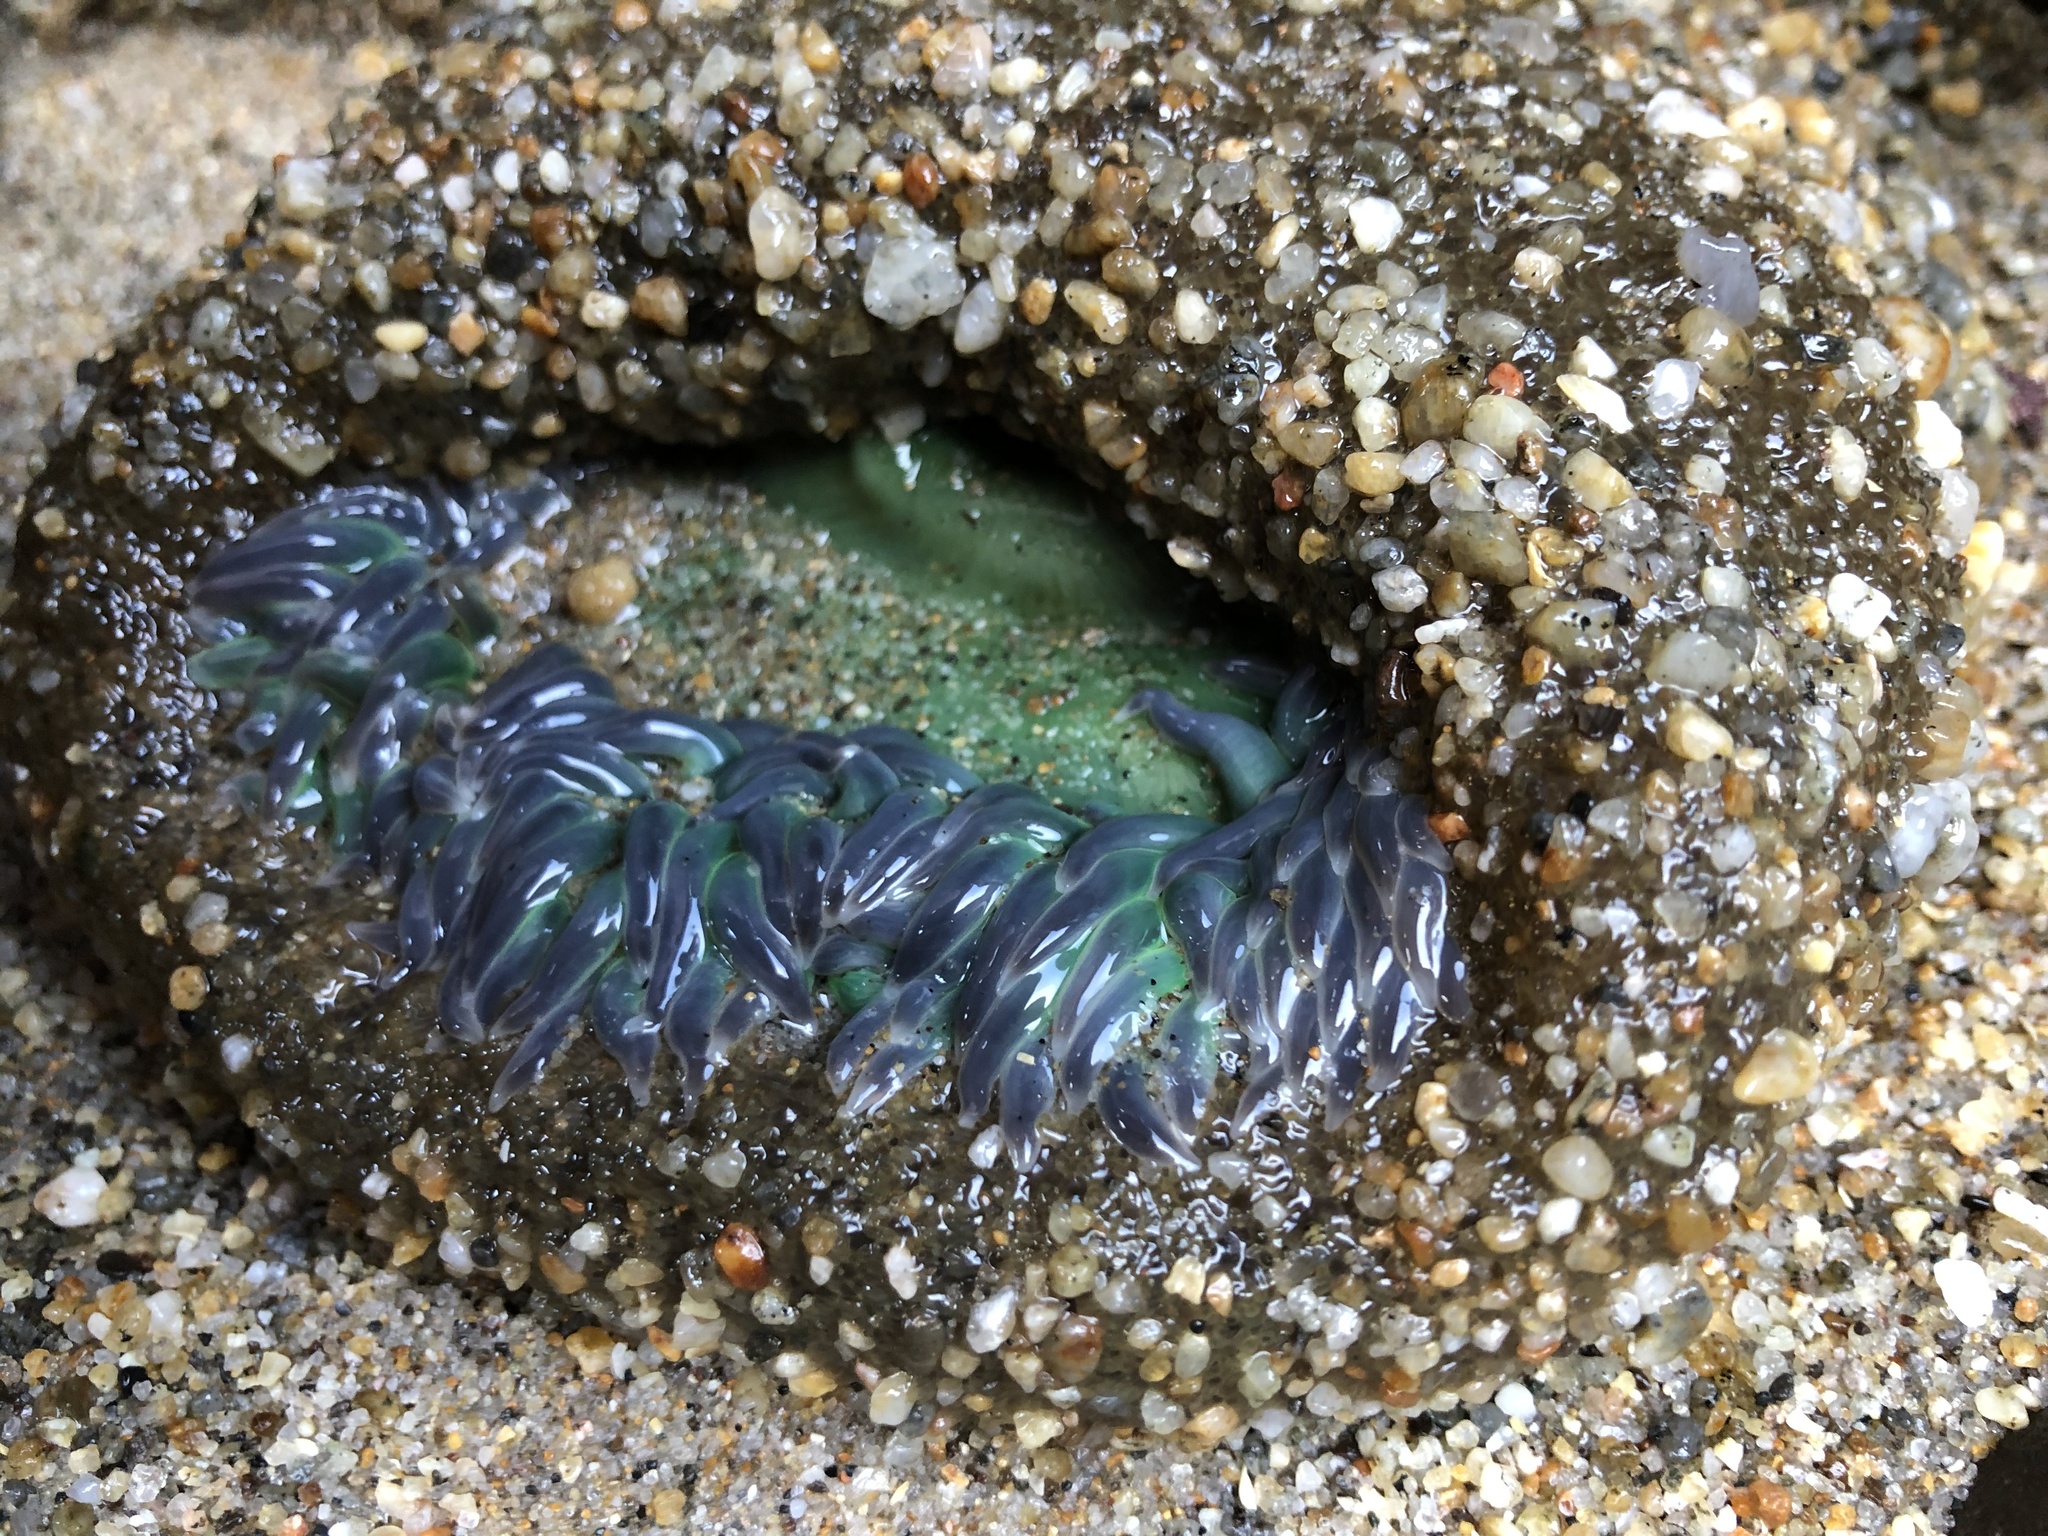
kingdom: Animalia
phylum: Cnidaria
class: Anthozoa
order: Actiniaria
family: Actiniidae
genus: Anthopleura
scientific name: Anthopleura xanthogrammica
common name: Giant green anemone
